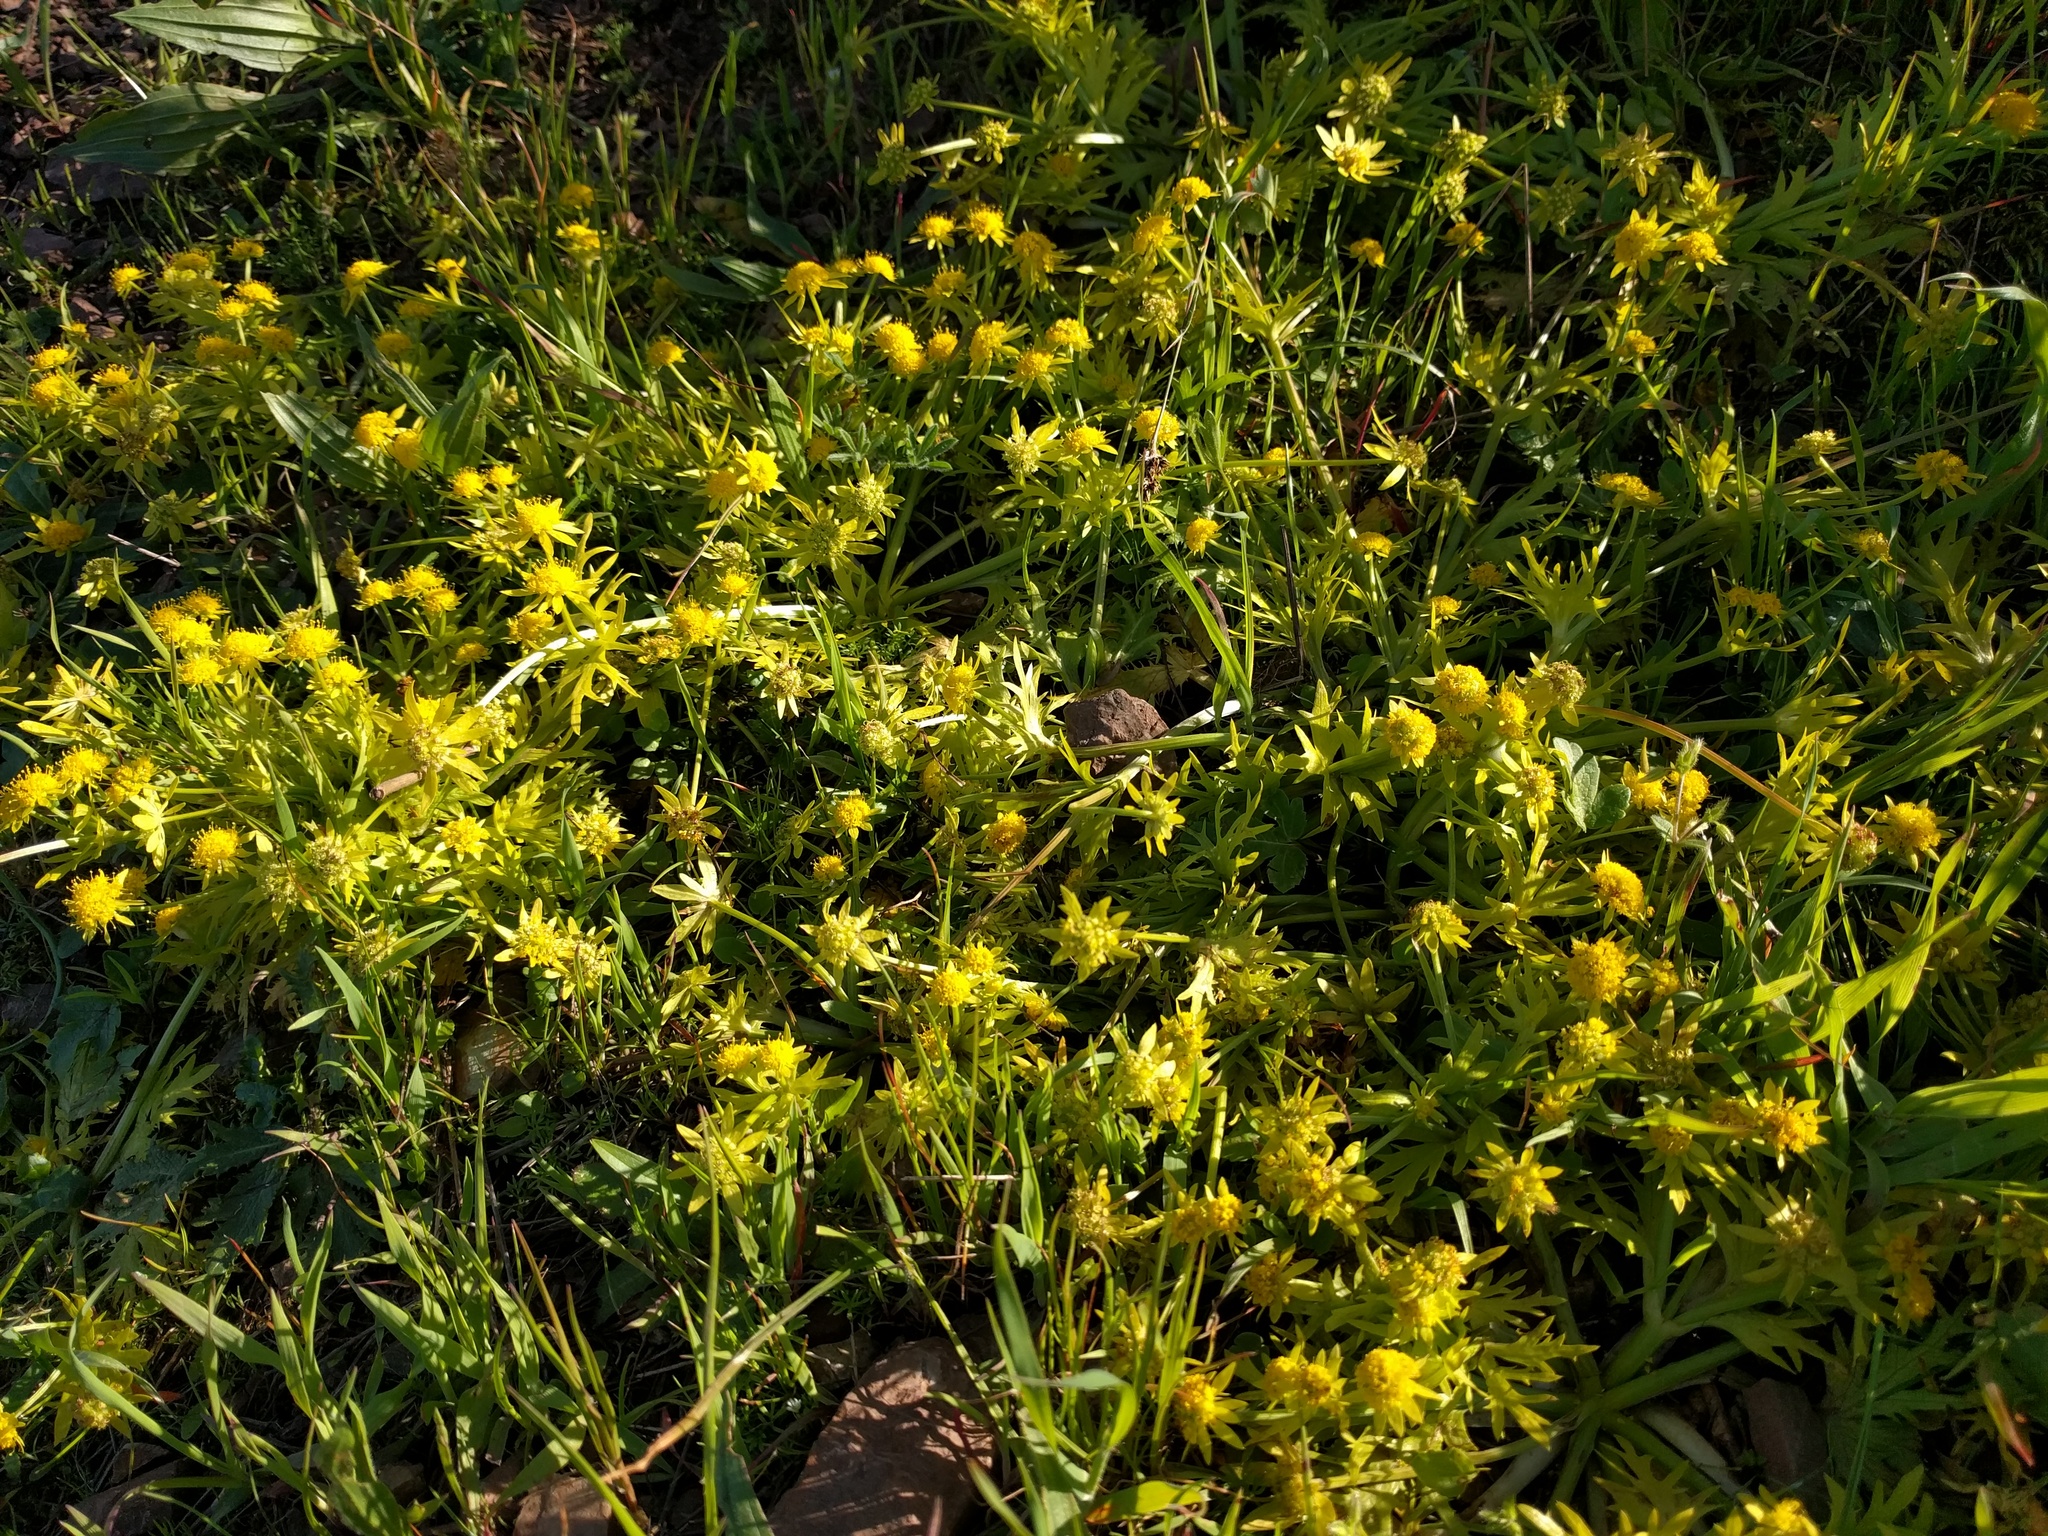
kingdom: Plantae
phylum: Tracheophyta
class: Magnoliopsida
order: Apiales
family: Apiaceae
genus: Sanicula
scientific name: Sanicula arctopoides
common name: Footsteps-of-spring
